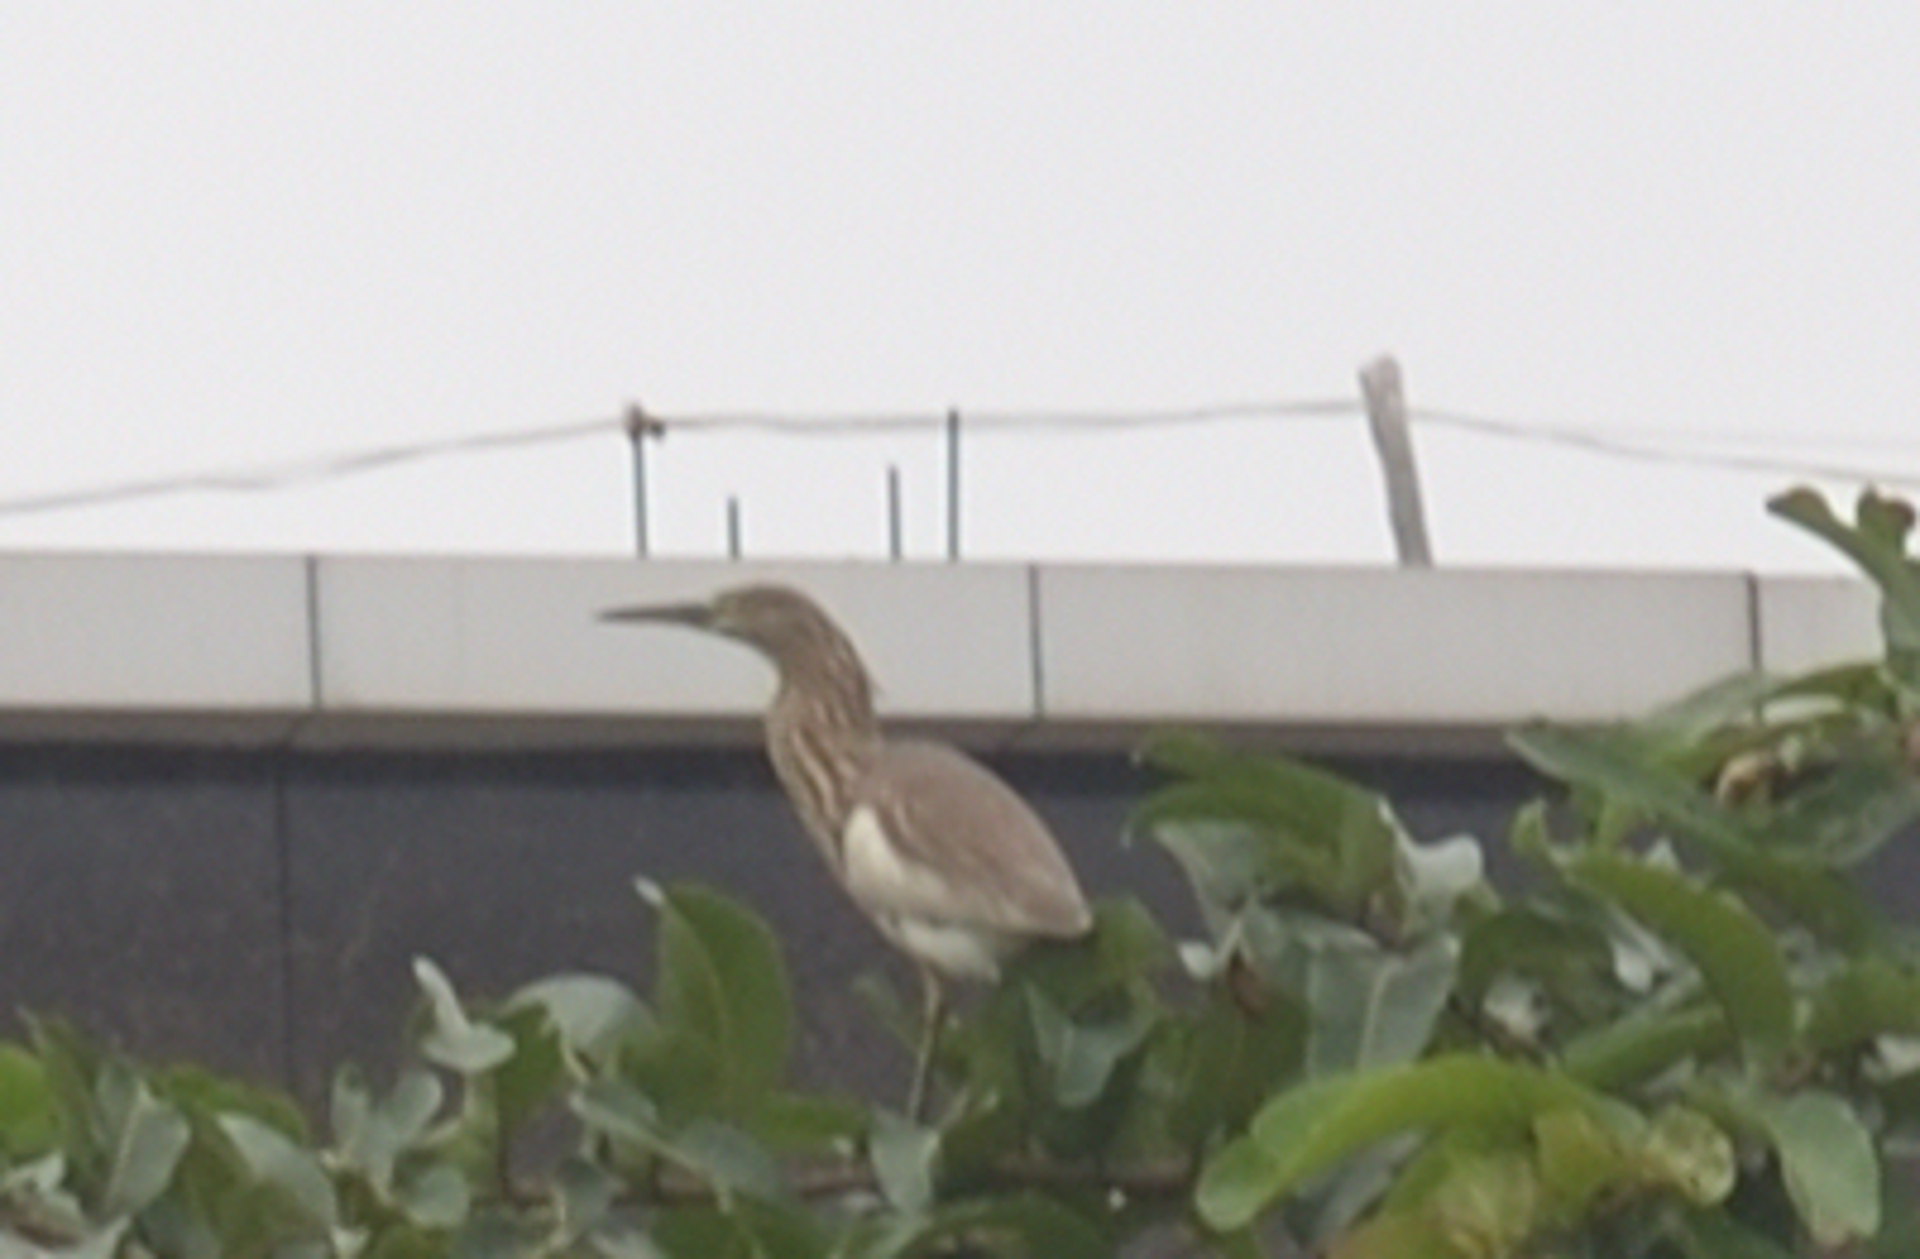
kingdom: Animalia
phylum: Chordata
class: Aves
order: Pelecaniformes
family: Ardeidae
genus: Ardeola
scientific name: Ardeola grayii
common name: Indian pond heron
